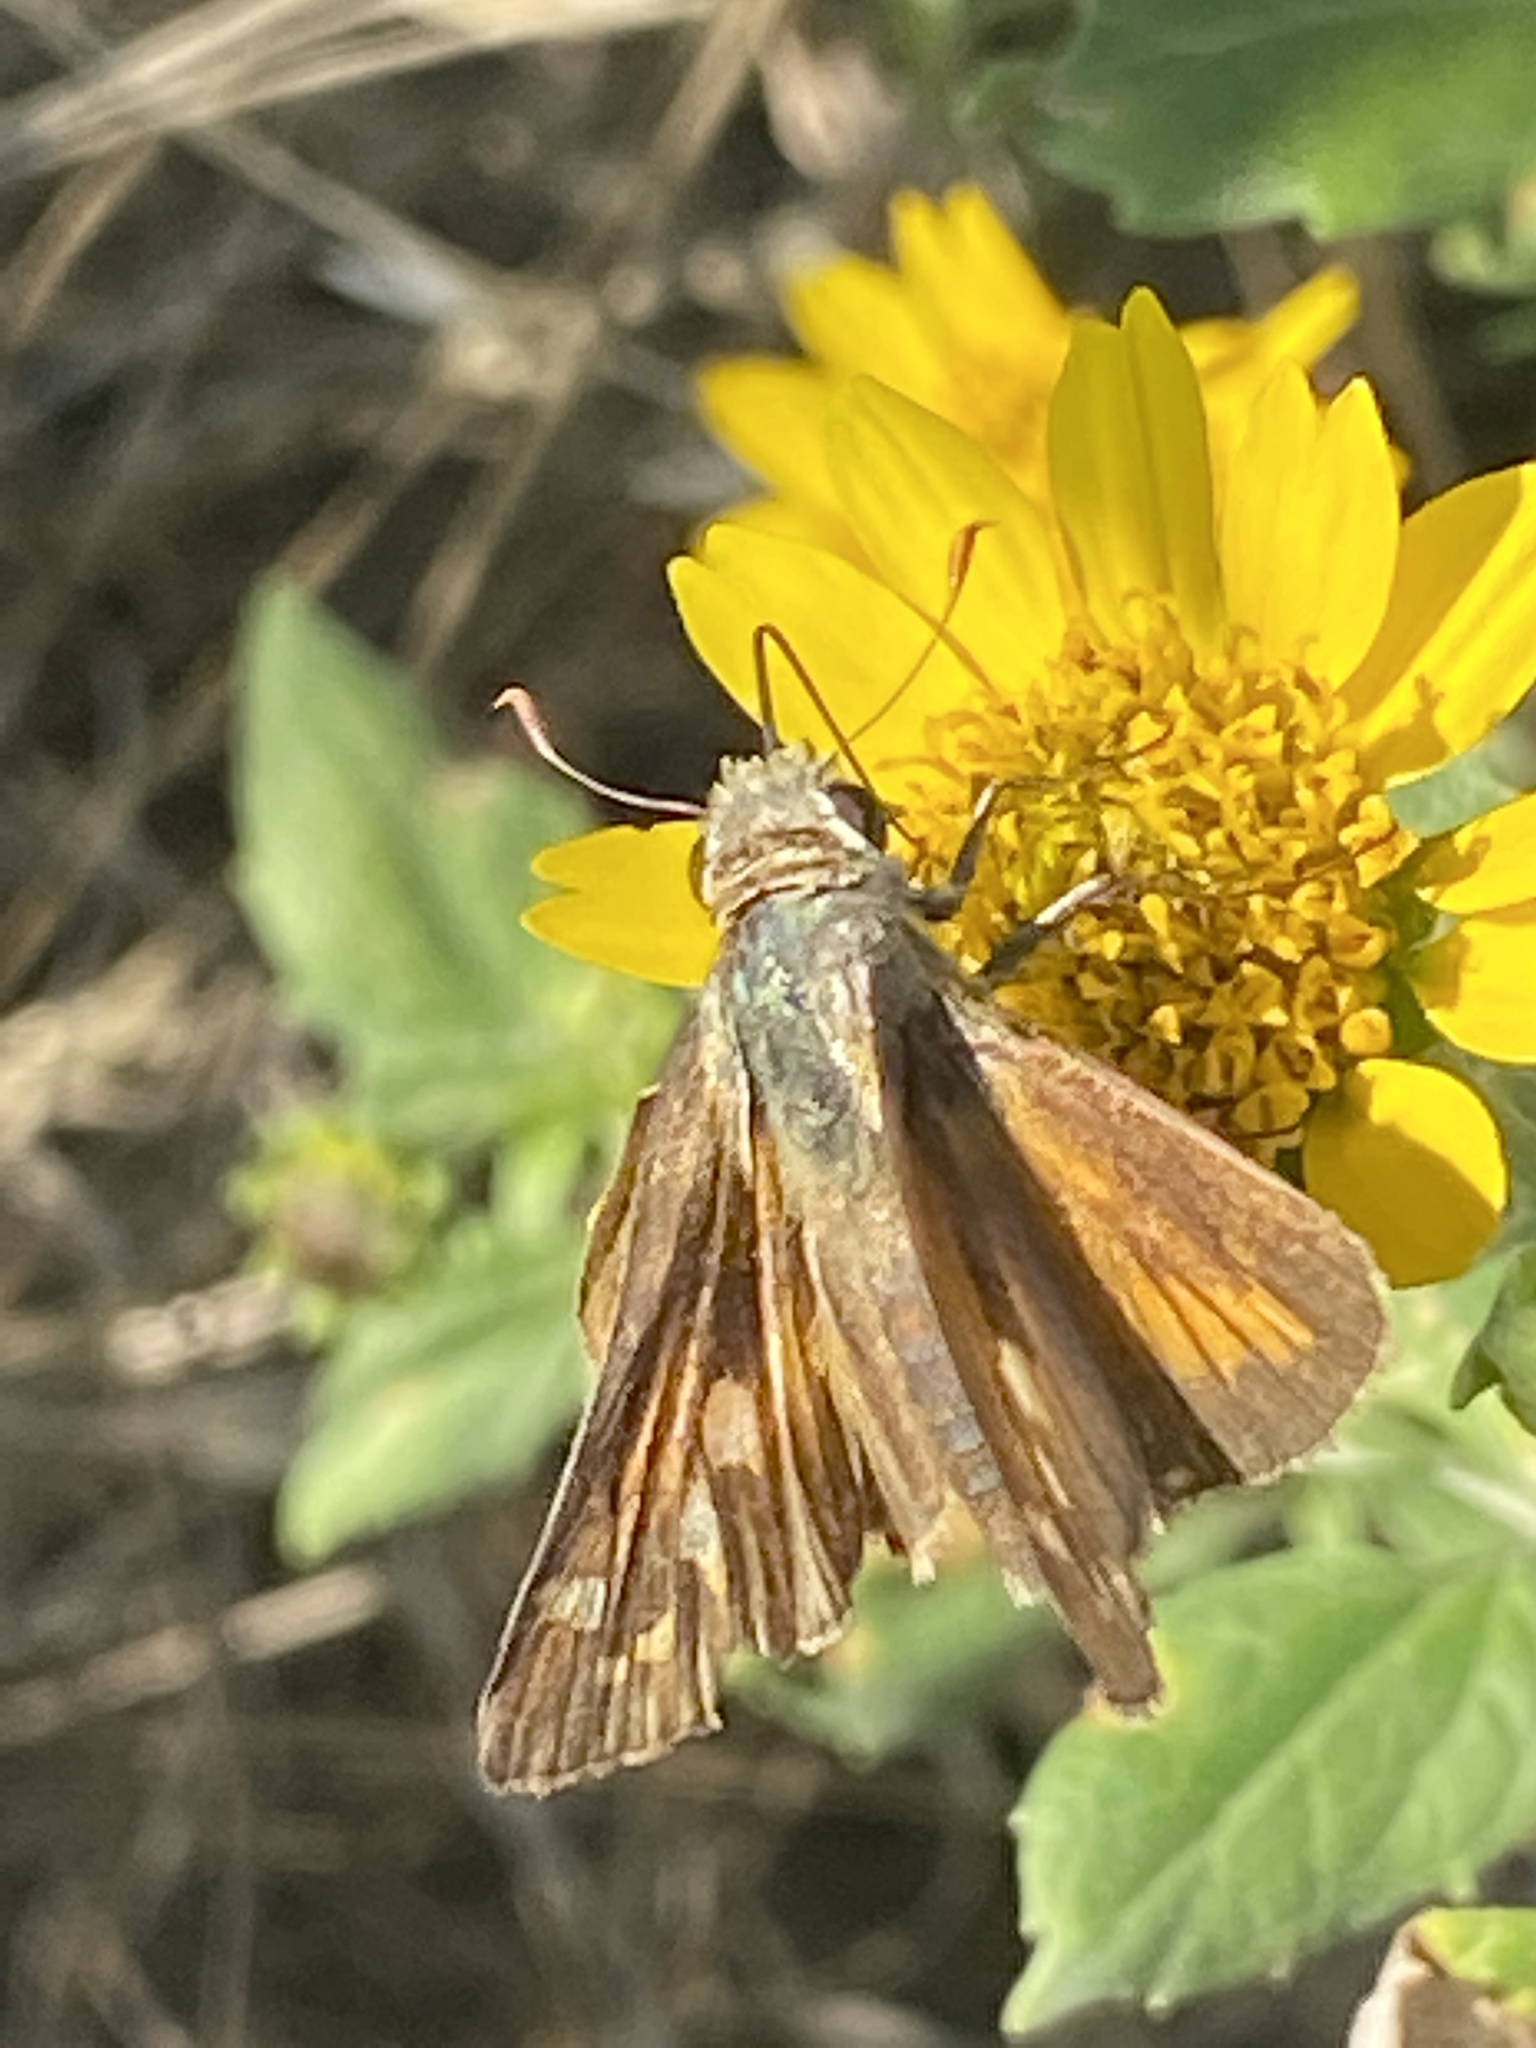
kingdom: Animalia
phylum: Arthropoda
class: Insecta
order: Lepidoptera
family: Hesperiidae
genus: Atalopedes
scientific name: Atalopedes
